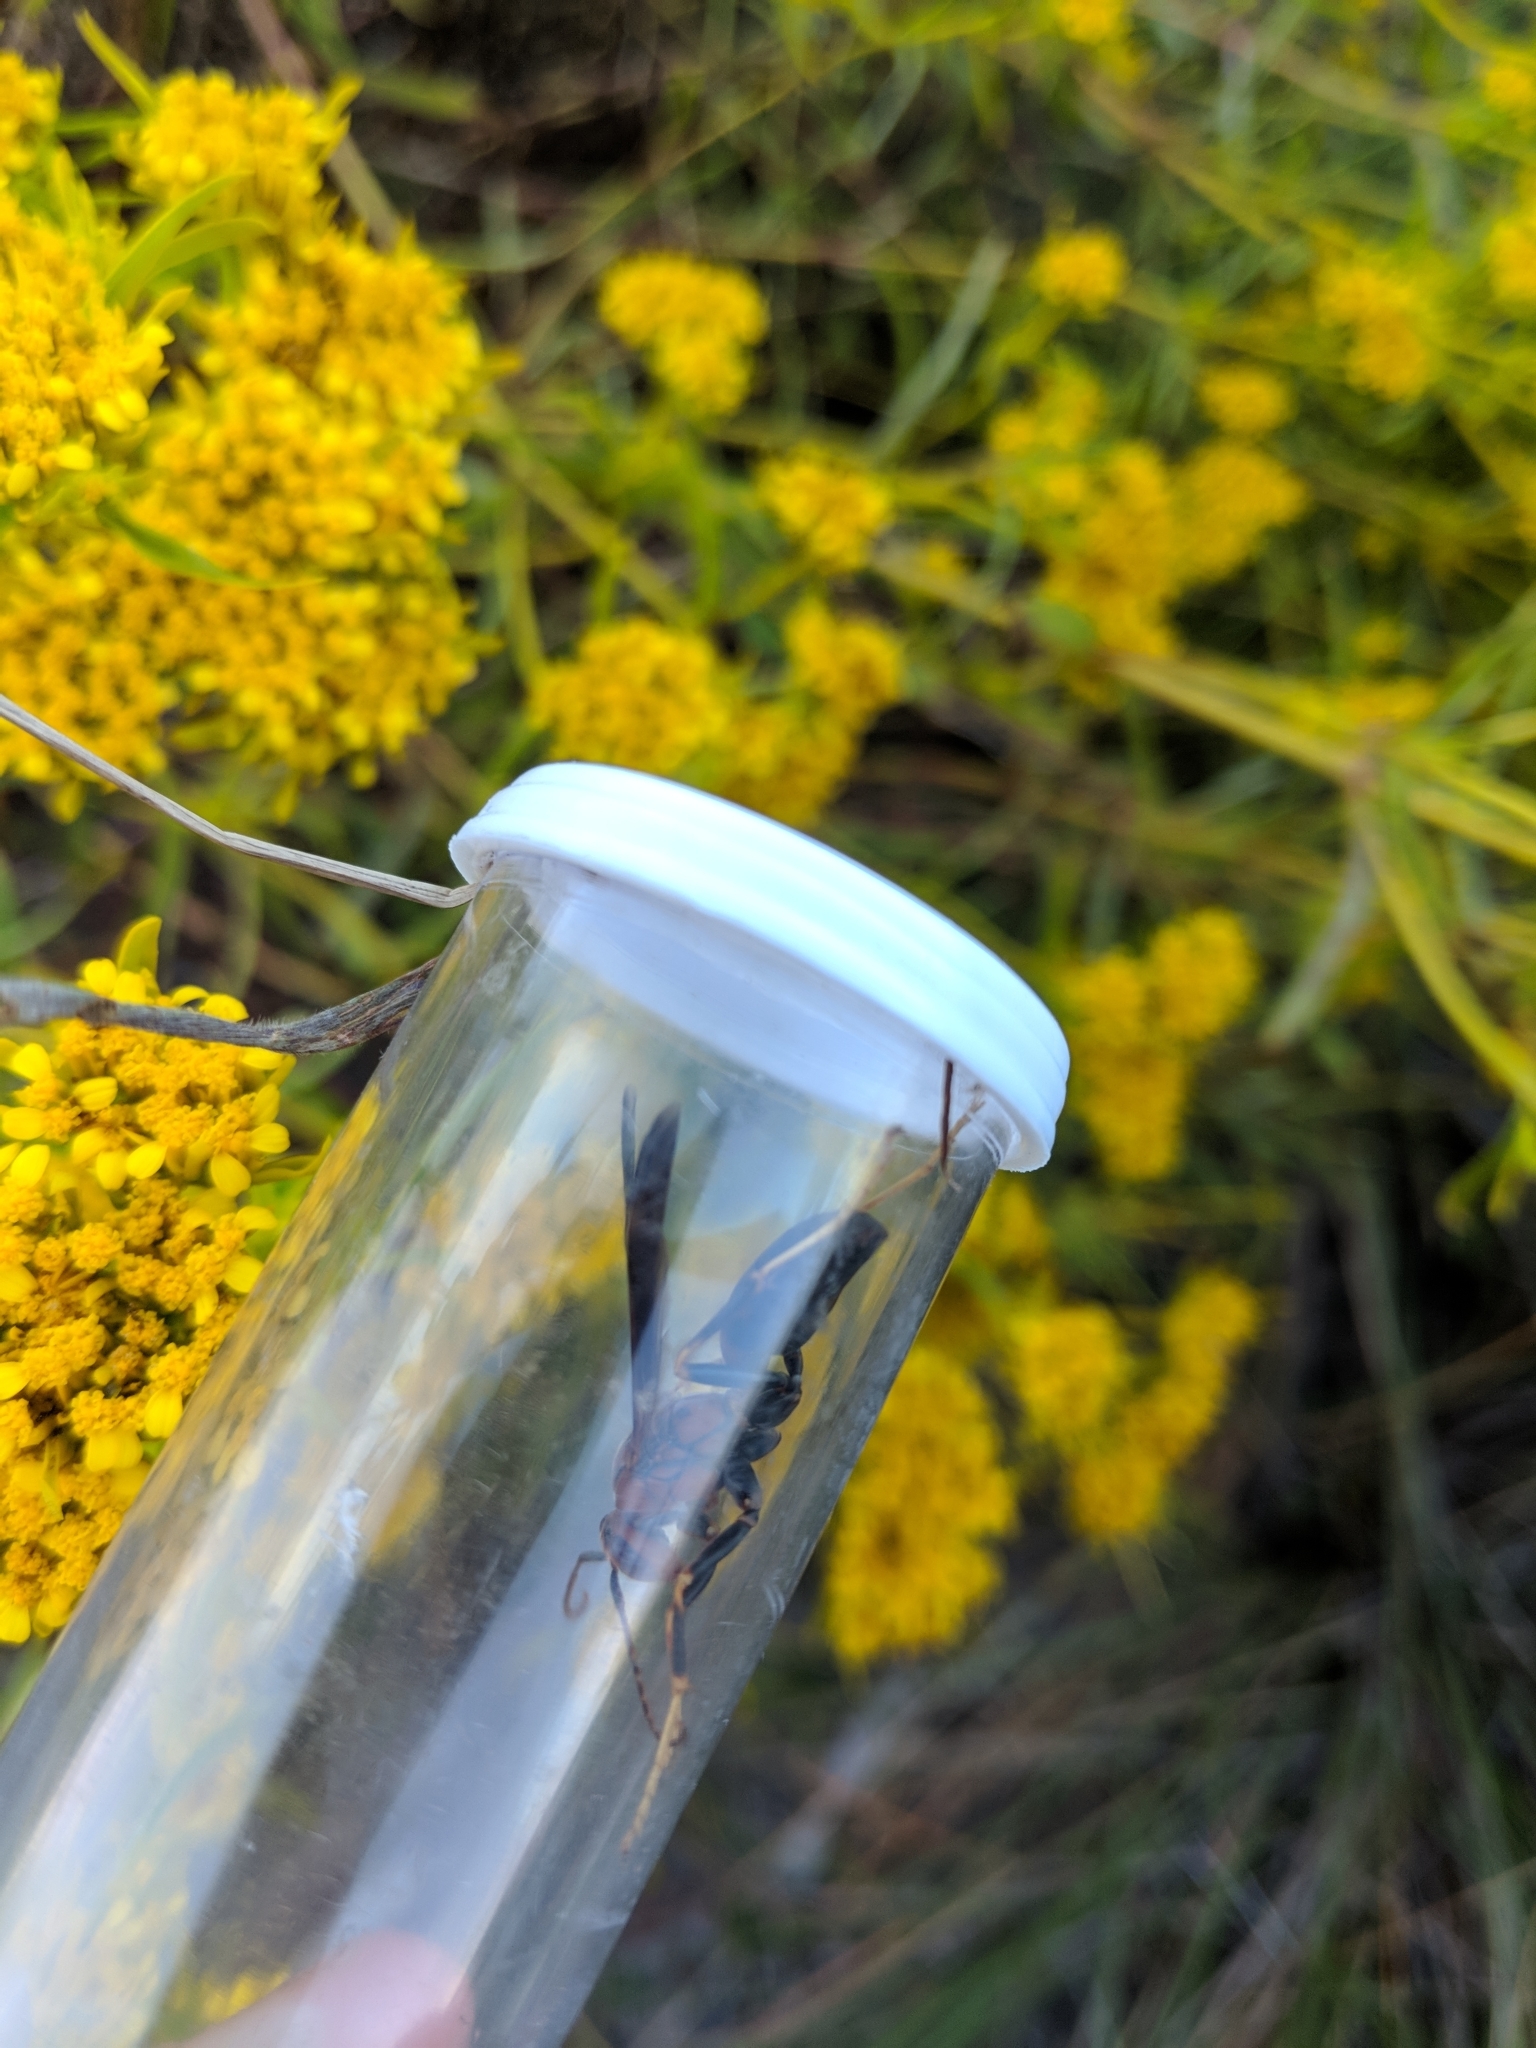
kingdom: Animalia
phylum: Arthropoda
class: Insecta
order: Hymenoptera
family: Eumenidae
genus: Polistes
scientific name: Polistes metricus
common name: Metric paper wasp
